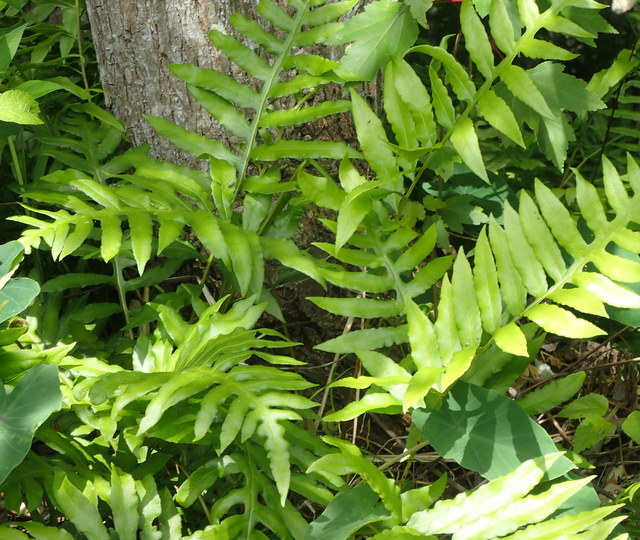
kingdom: Plantae
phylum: Tracheophyta
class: Polypodiopsida
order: Polypodiales
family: Blechnaceae
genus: Lorinseria
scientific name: Lorinseria areolata
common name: Dwarf chain fern
